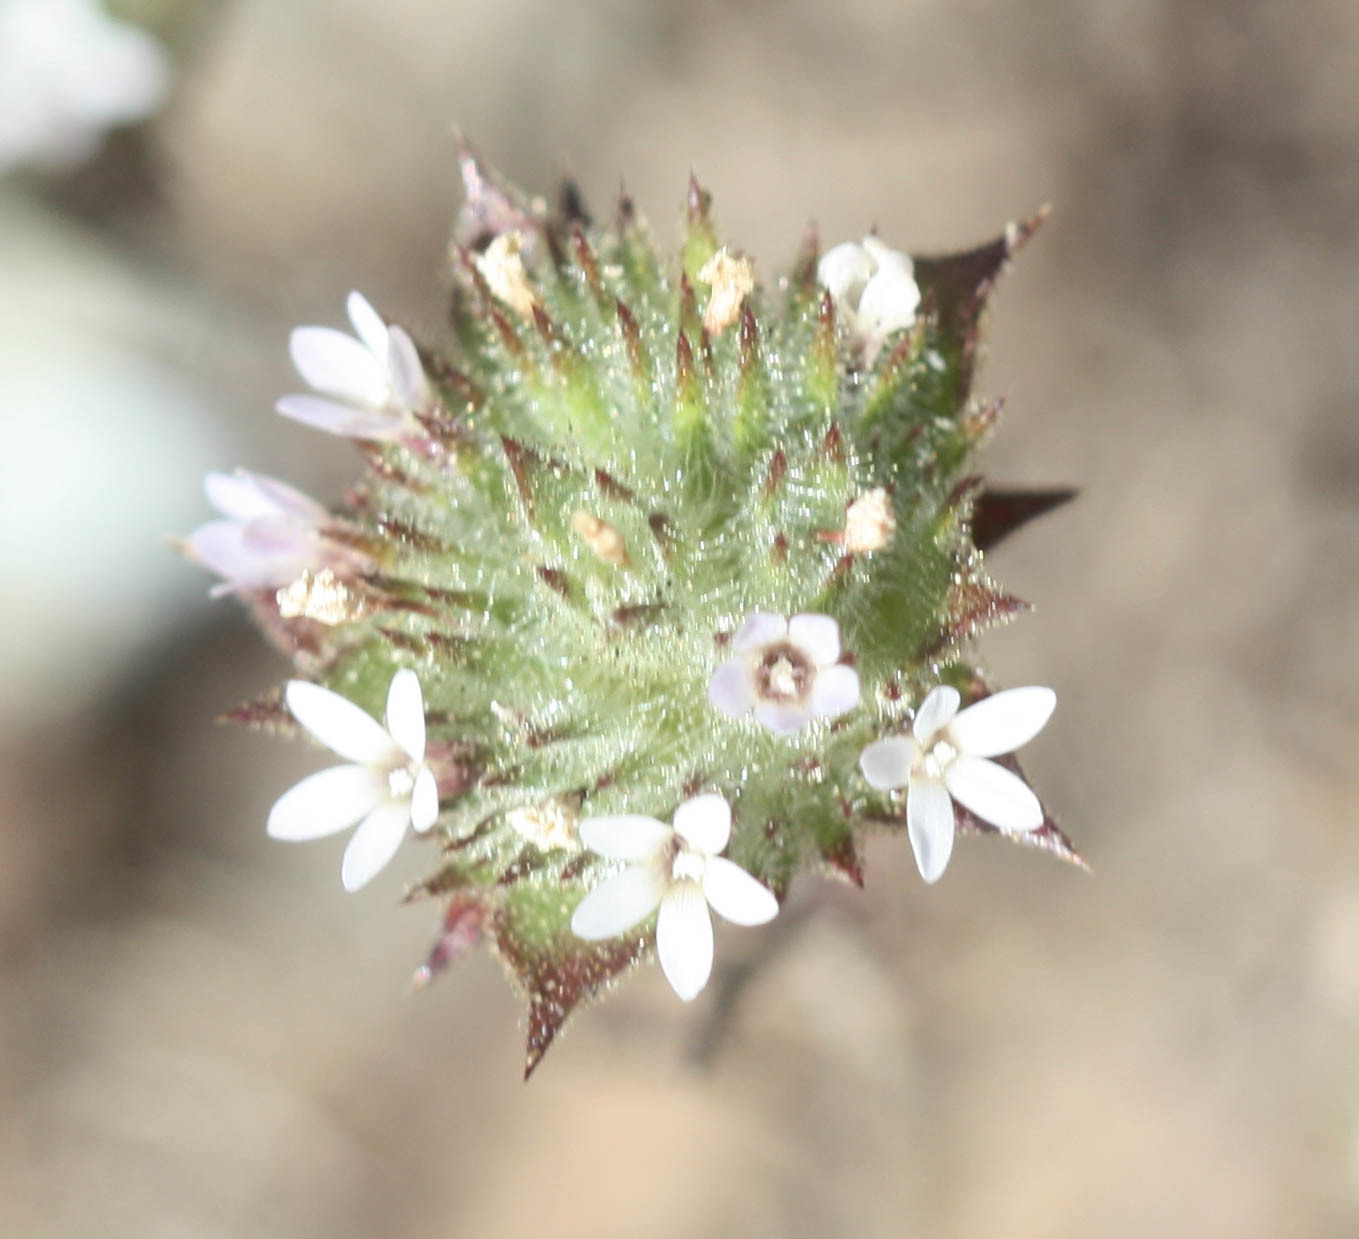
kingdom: Plantae
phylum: Tracheophyta
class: Magnoliopsida
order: Ericales
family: Polemoniaceae
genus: Navarretia
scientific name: Navarretia rosulata
